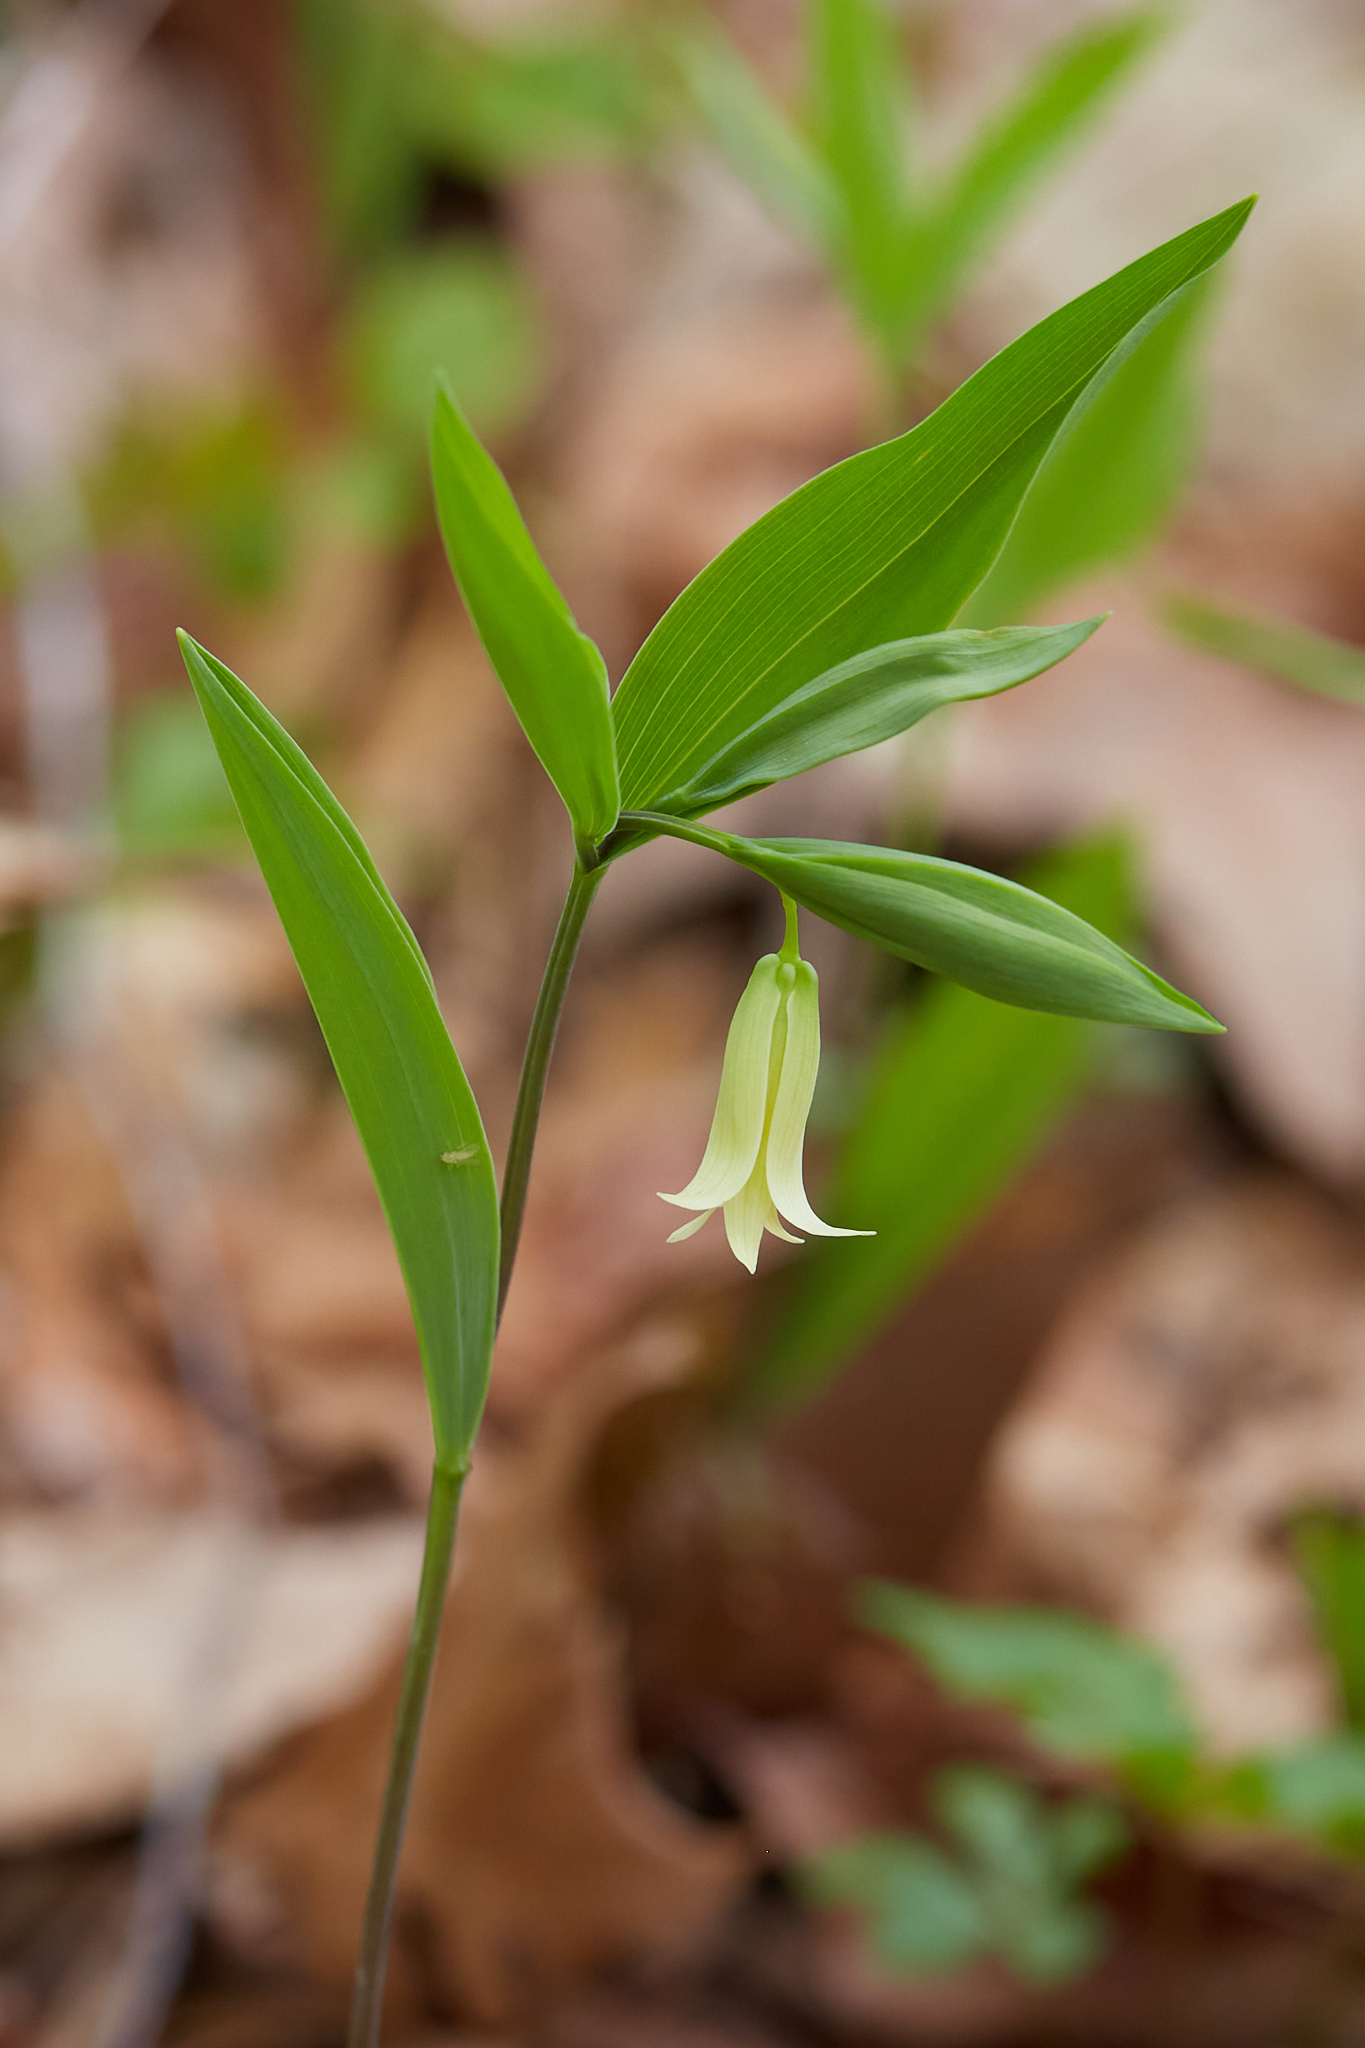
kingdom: Plantae
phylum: Tracheophyta
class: Liliopsida
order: Liliales
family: Colchicaceae
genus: Uvularia
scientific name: Uvularia sessilifolia
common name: Straw-lily
